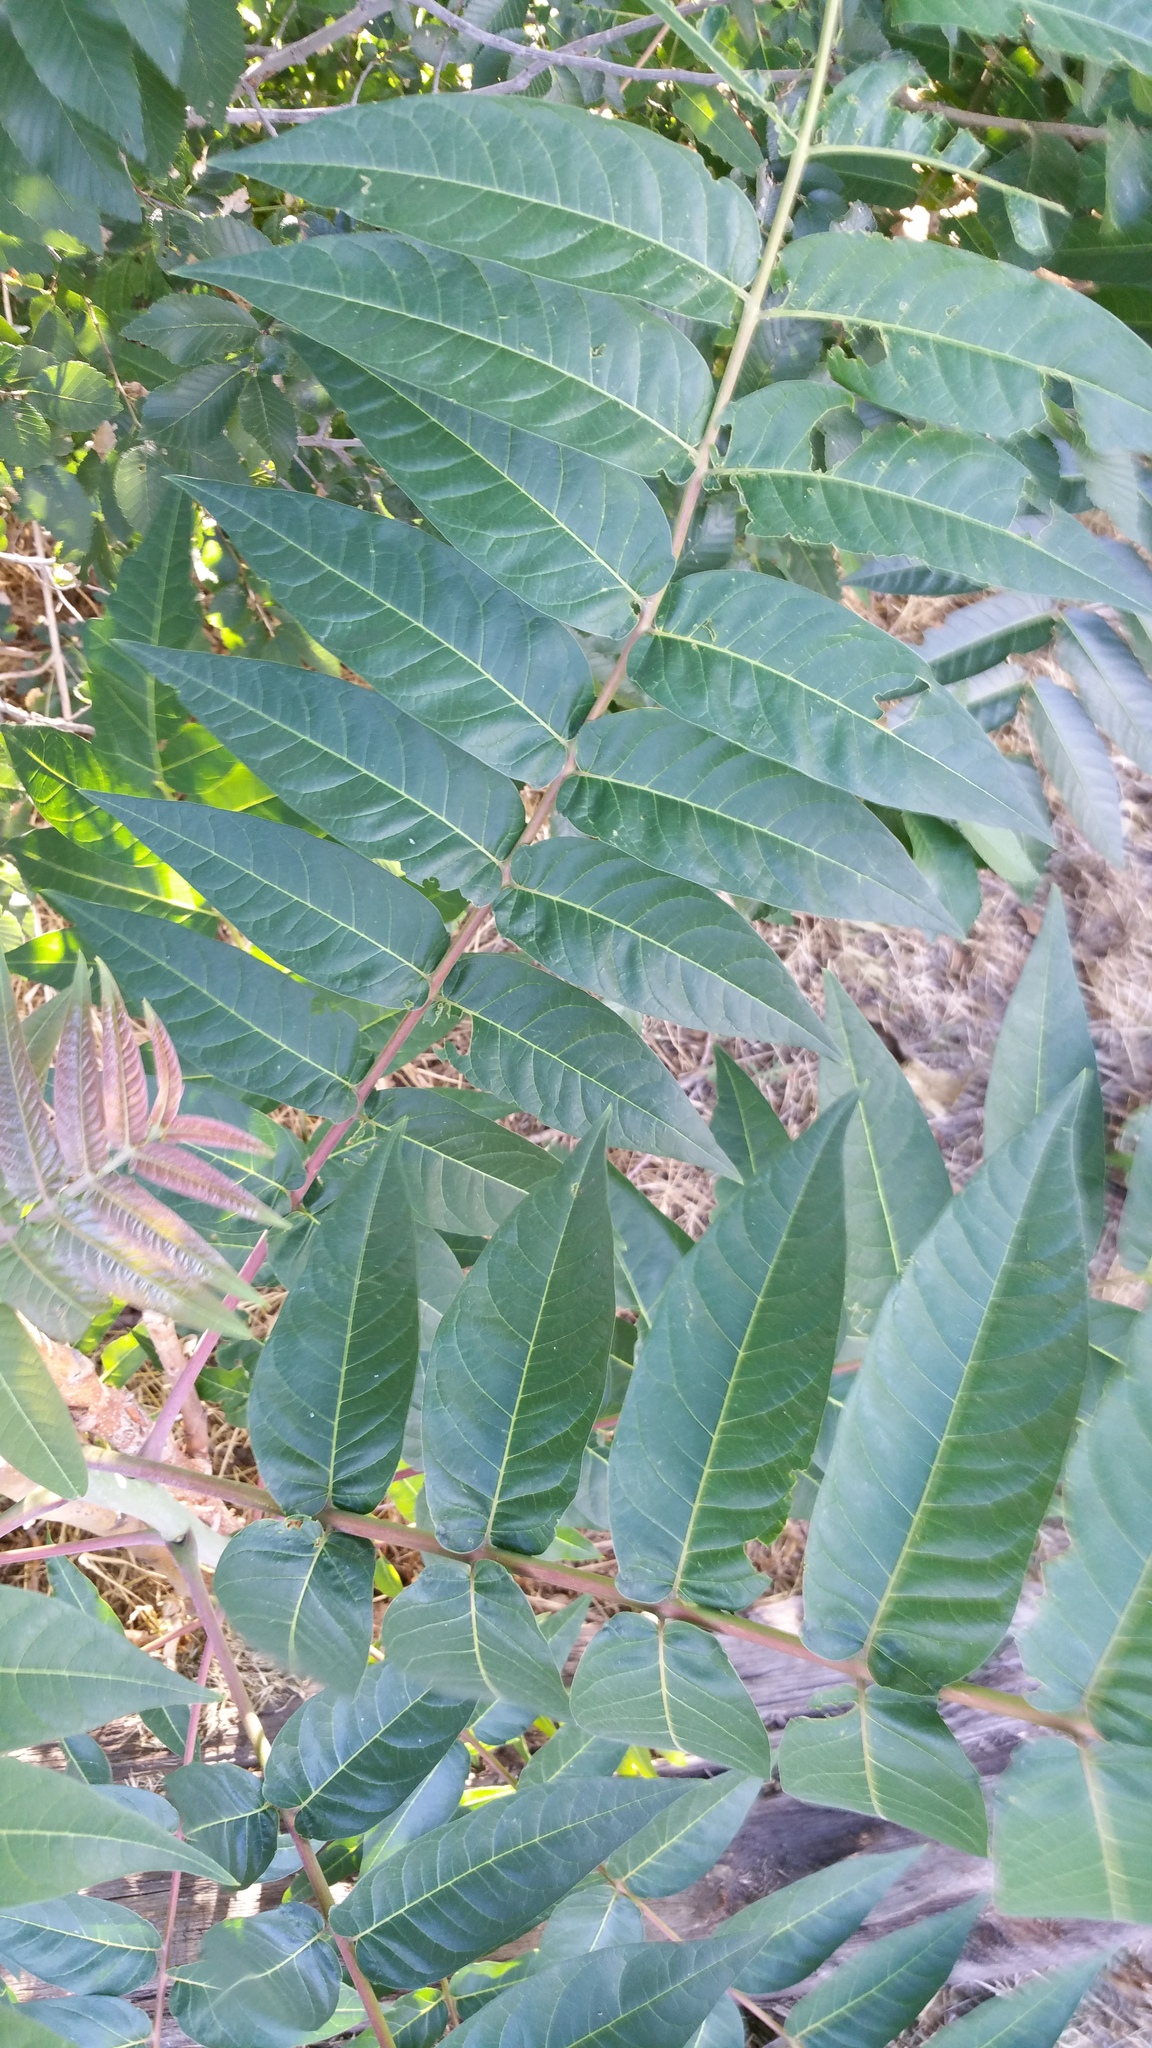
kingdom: Plantae
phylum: Tracheophyta
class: Magnoliopsida
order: Sapindales
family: Simaroubaceae
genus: Ailanthus
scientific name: Ailanthus altissima
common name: Tree-of-heaven
